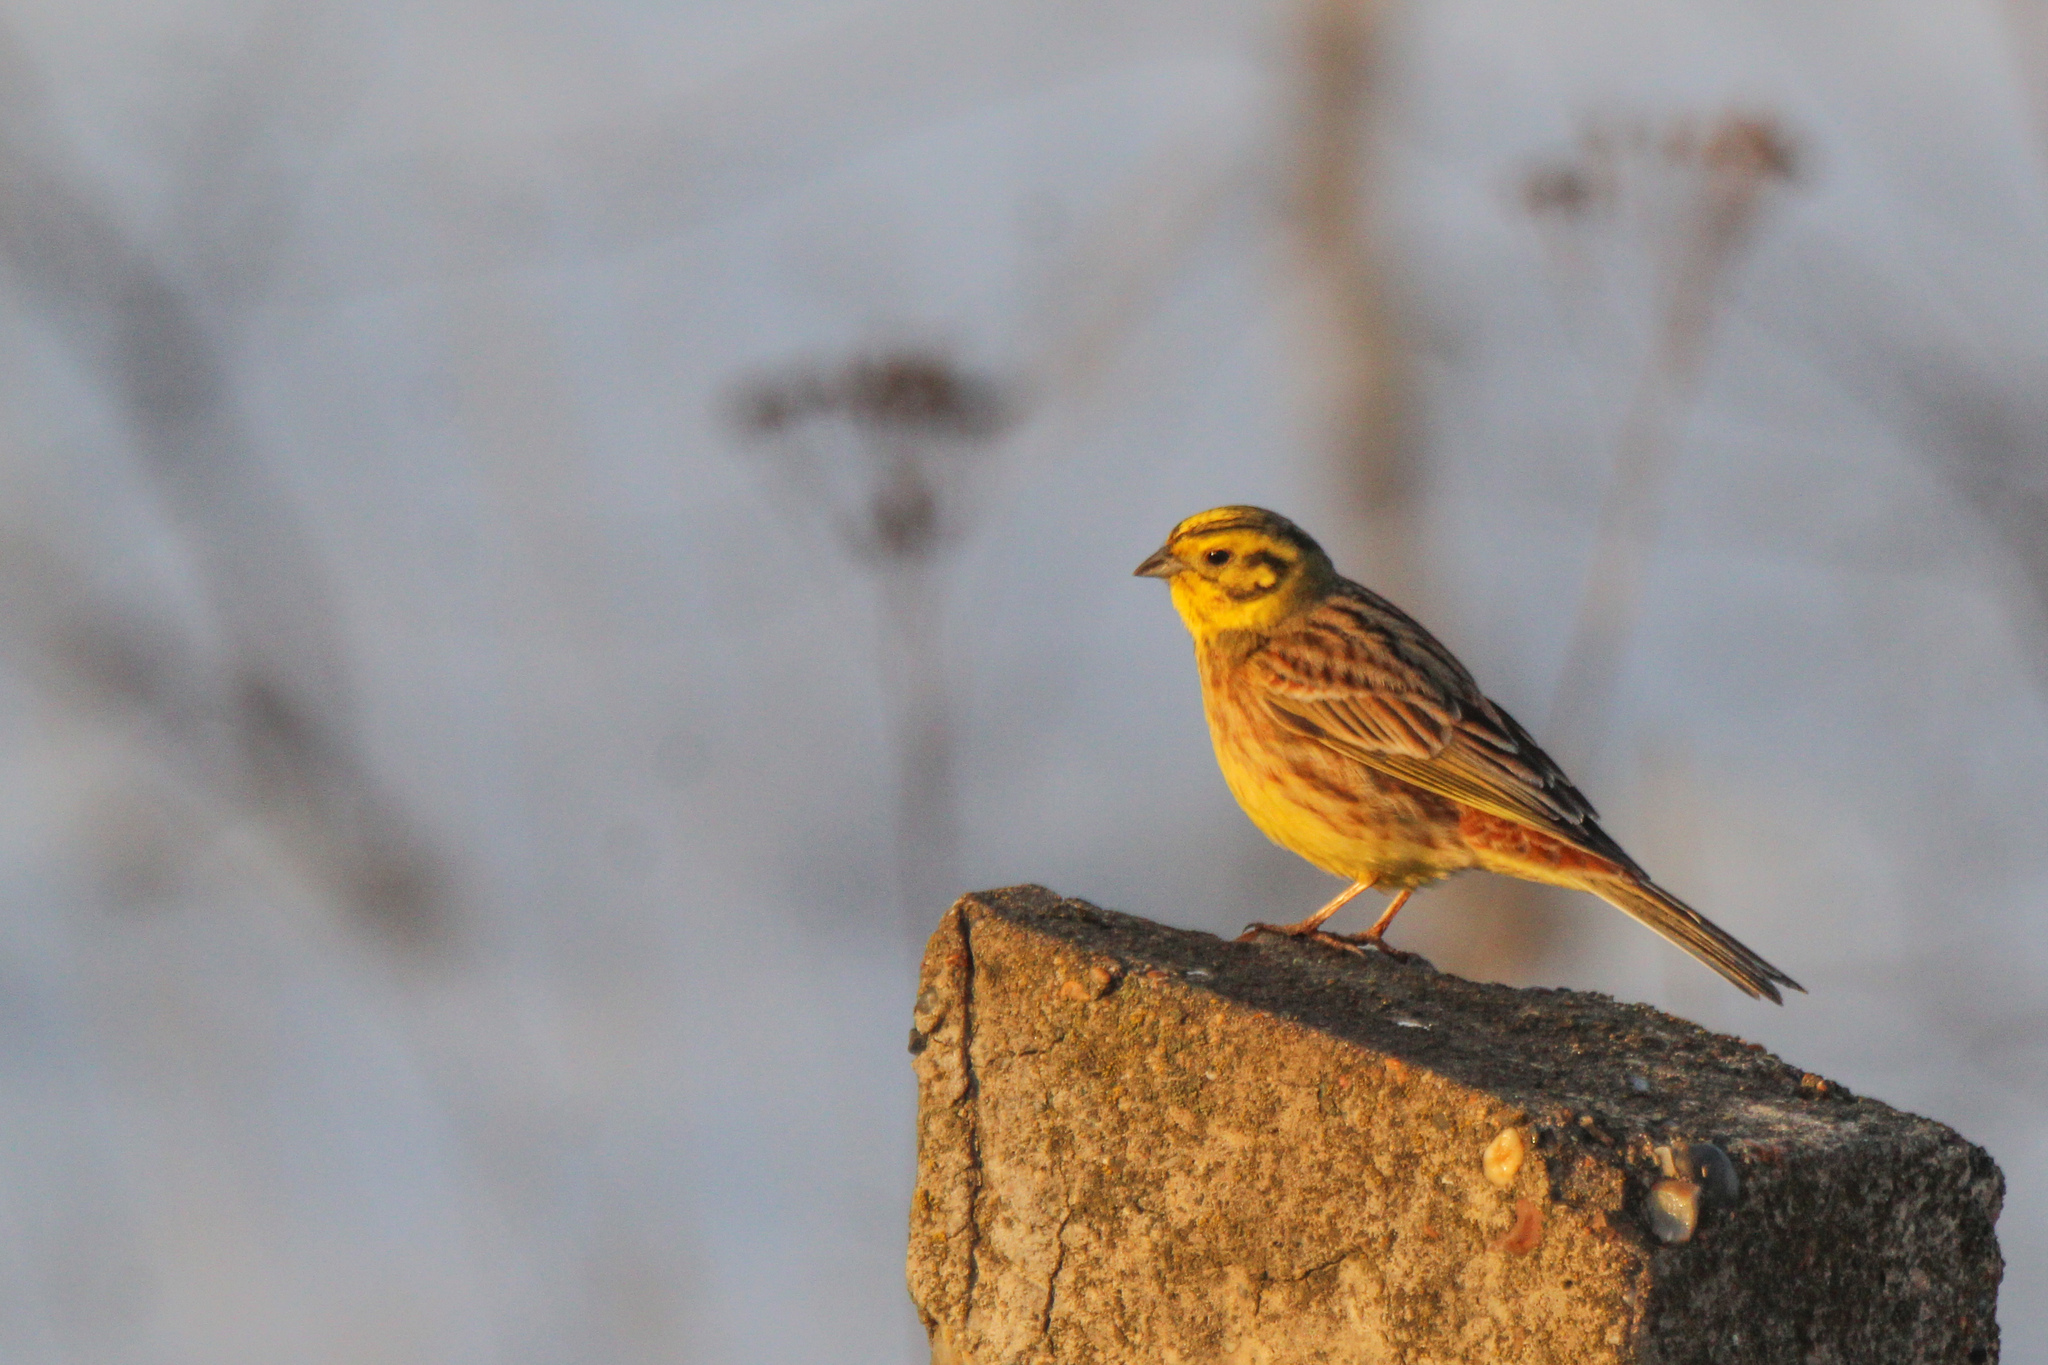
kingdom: Animalia
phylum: Chordata
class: Aves
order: Passeriformes
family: Emberizidae
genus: Emberiza
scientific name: Emberiza
